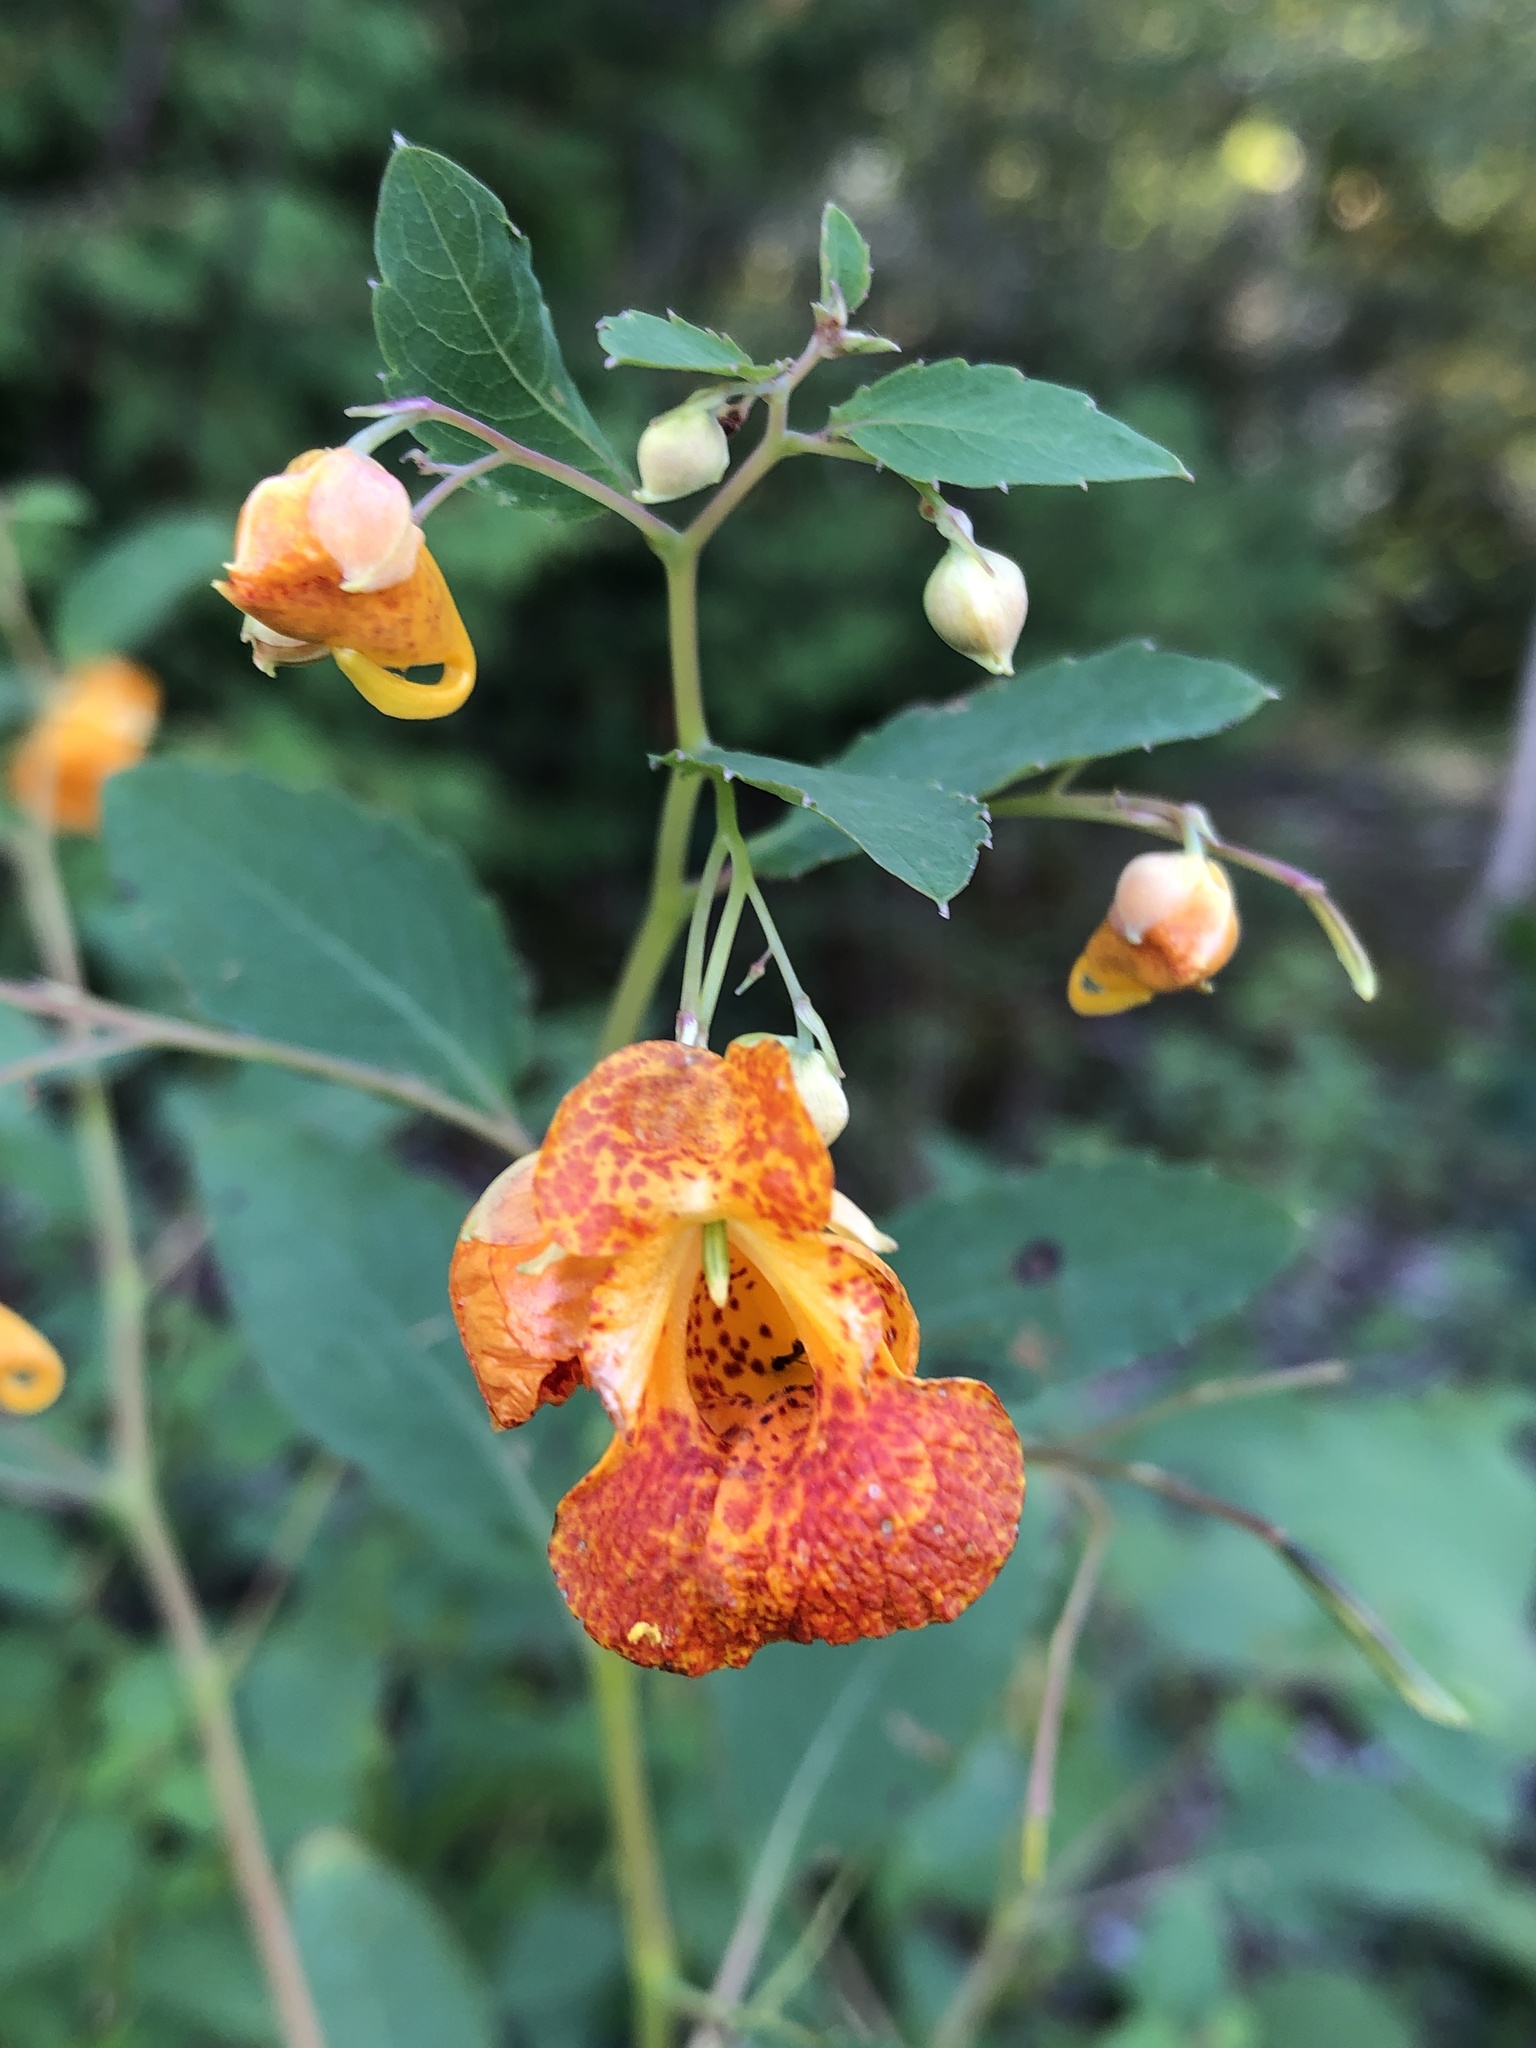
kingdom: Plantae
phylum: Tracheophyta
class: Magnoliopsida
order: Ericales
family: Balsaminaceae
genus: Impatiens
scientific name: Impatiens capensis
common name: Orange balsam
